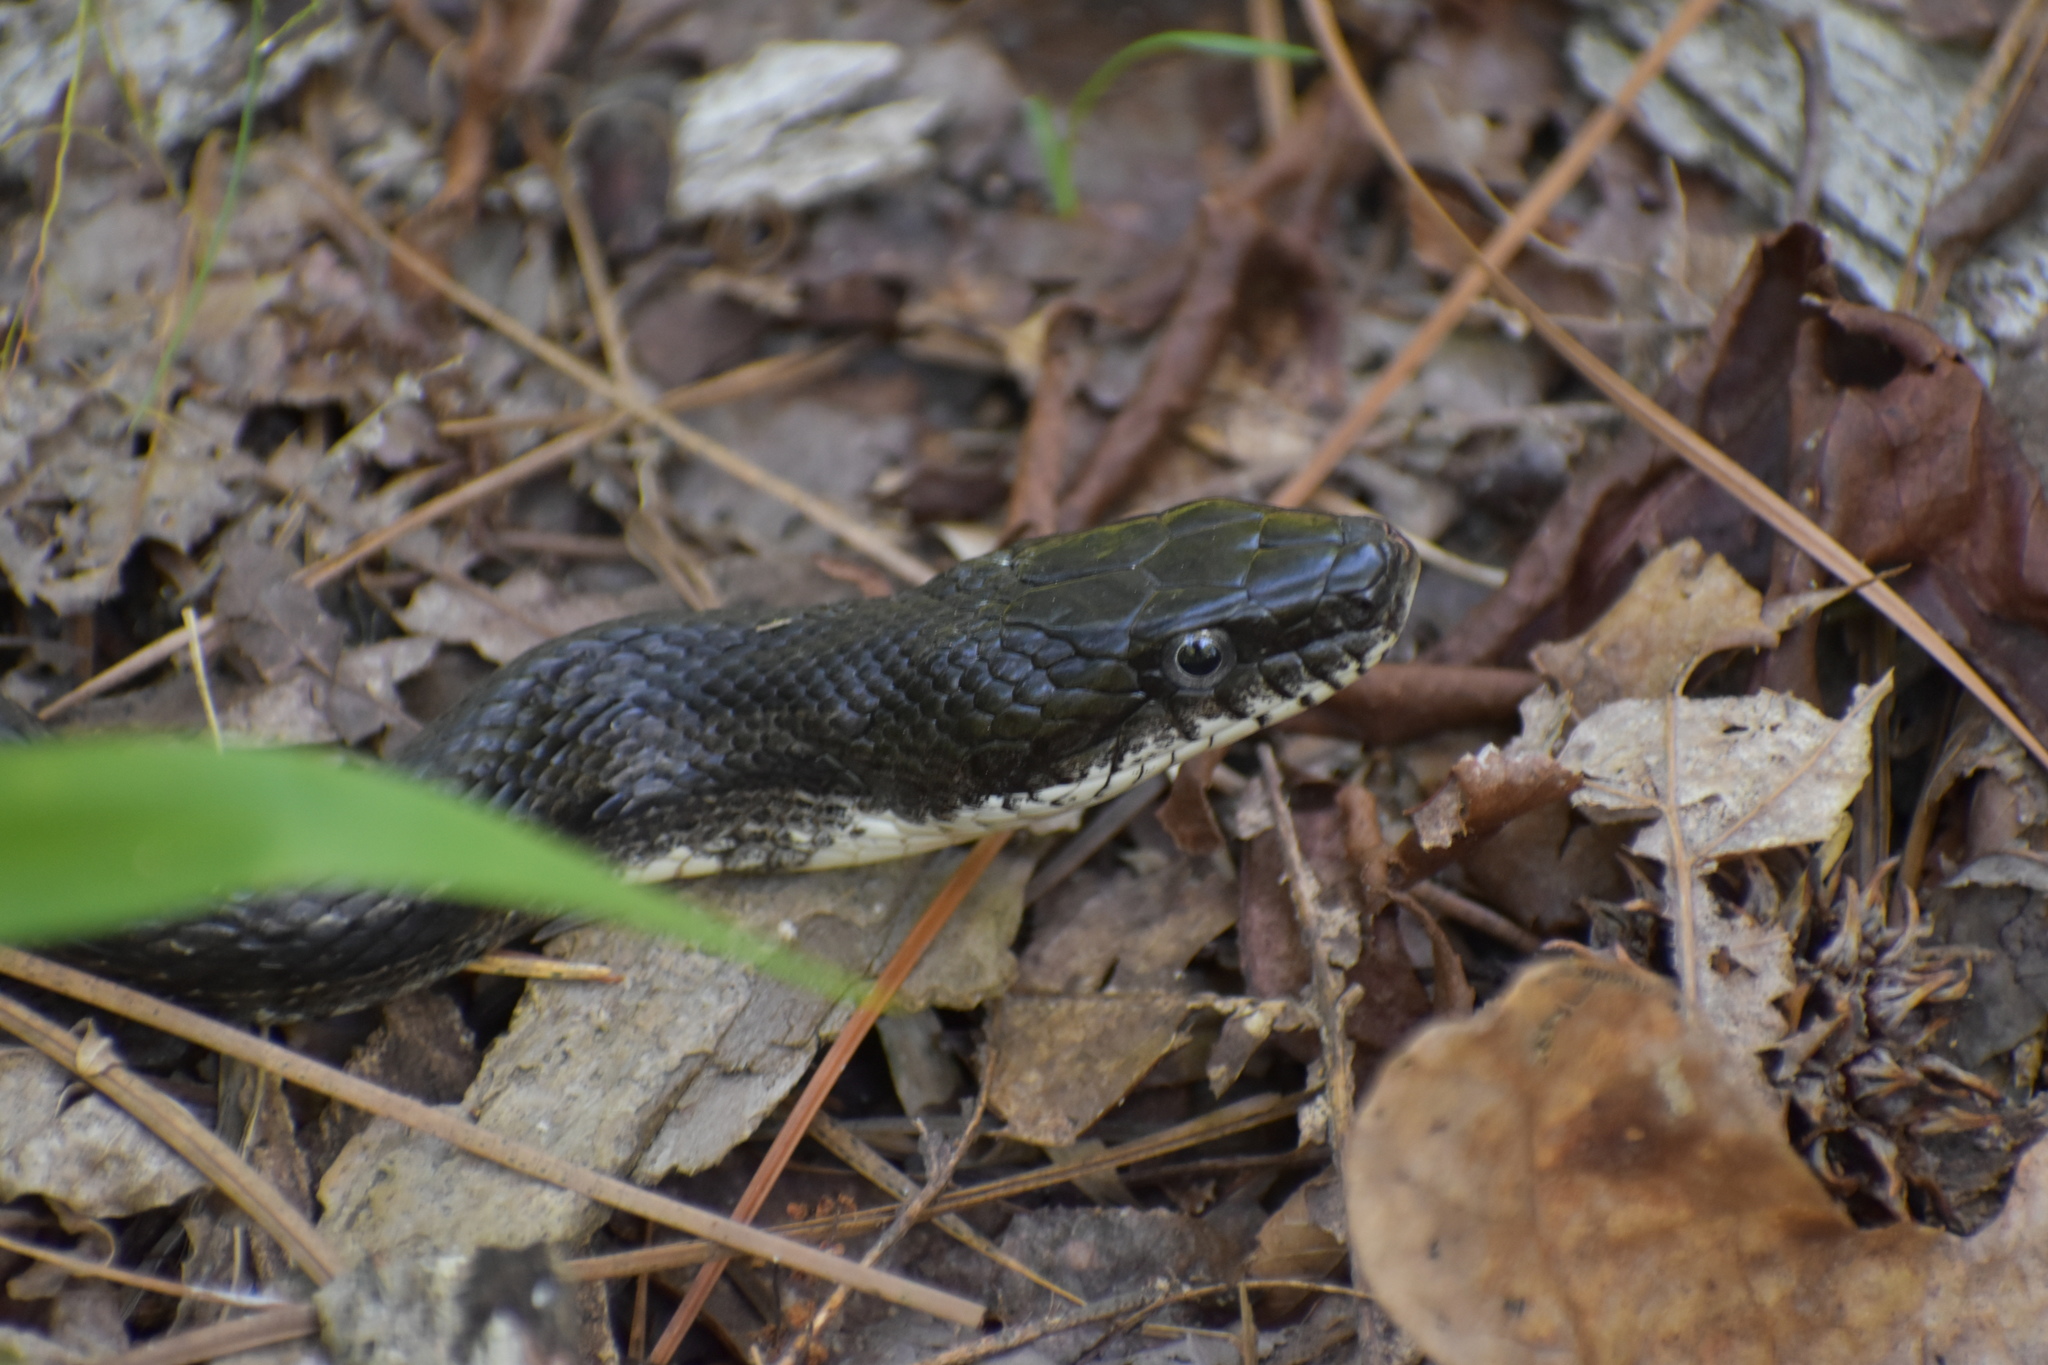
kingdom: Animalia
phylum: Chordata
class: Squamata
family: Colubridae
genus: Pantherophis
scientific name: Pantherophis alleghaniensis
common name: Eastern rat snake
